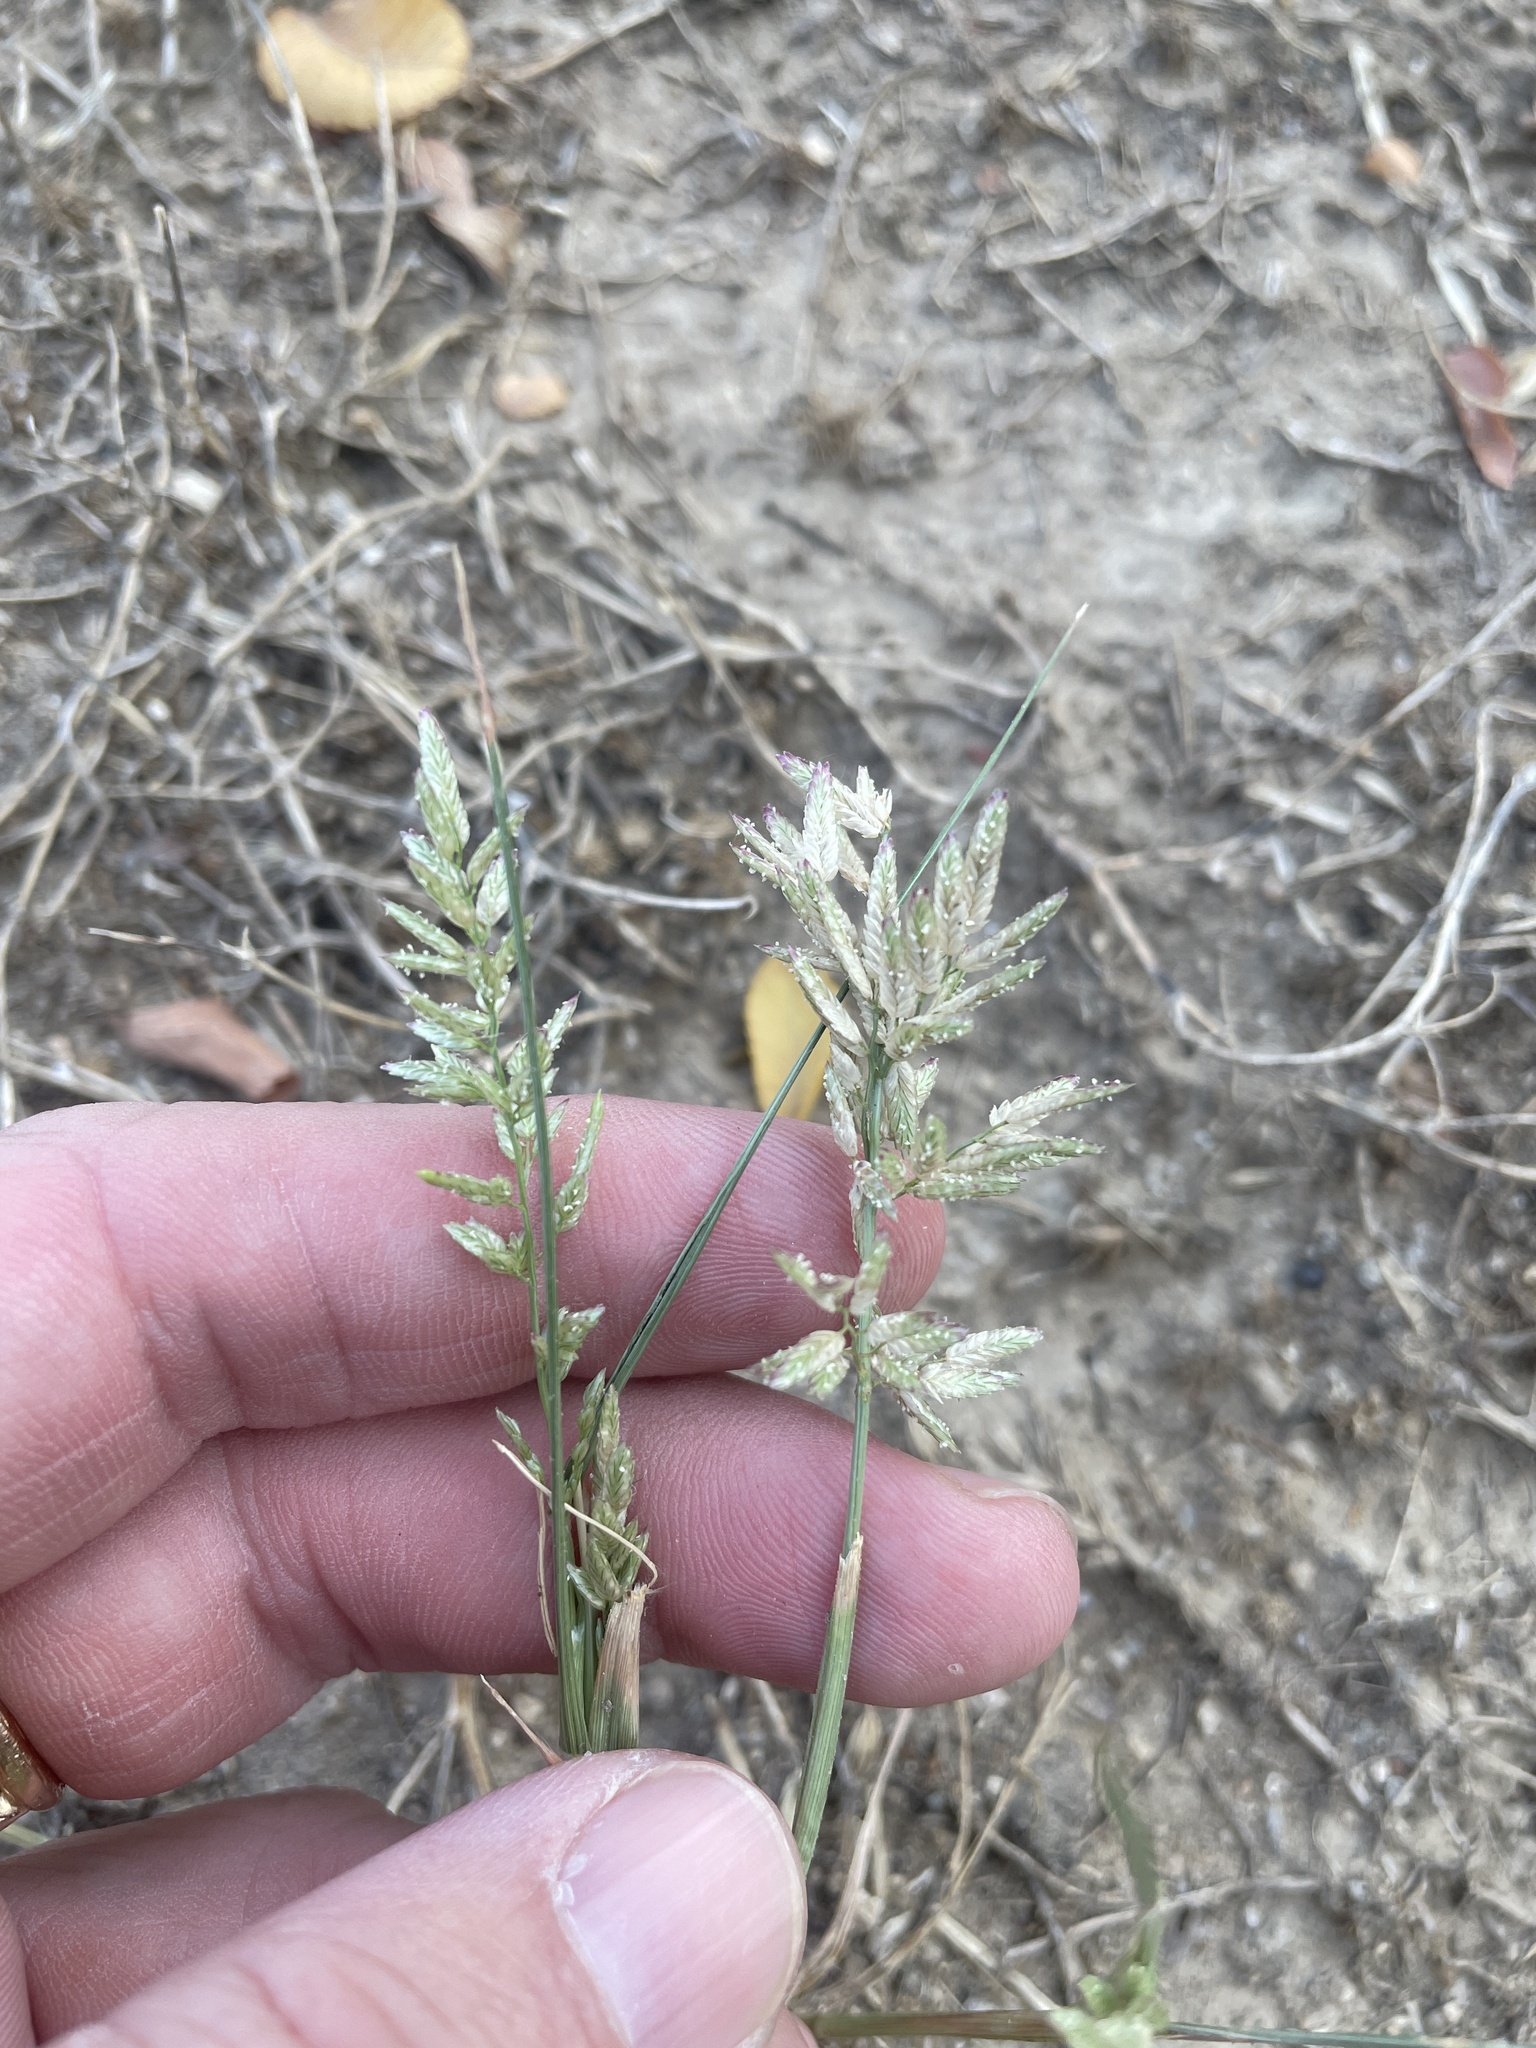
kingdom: Plantae
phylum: Tracheophyta
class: Liliopsida
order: Poales
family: Poaceae
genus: Eragrostis
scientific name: Eragrostis cilianensis
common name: Stinkgrass
